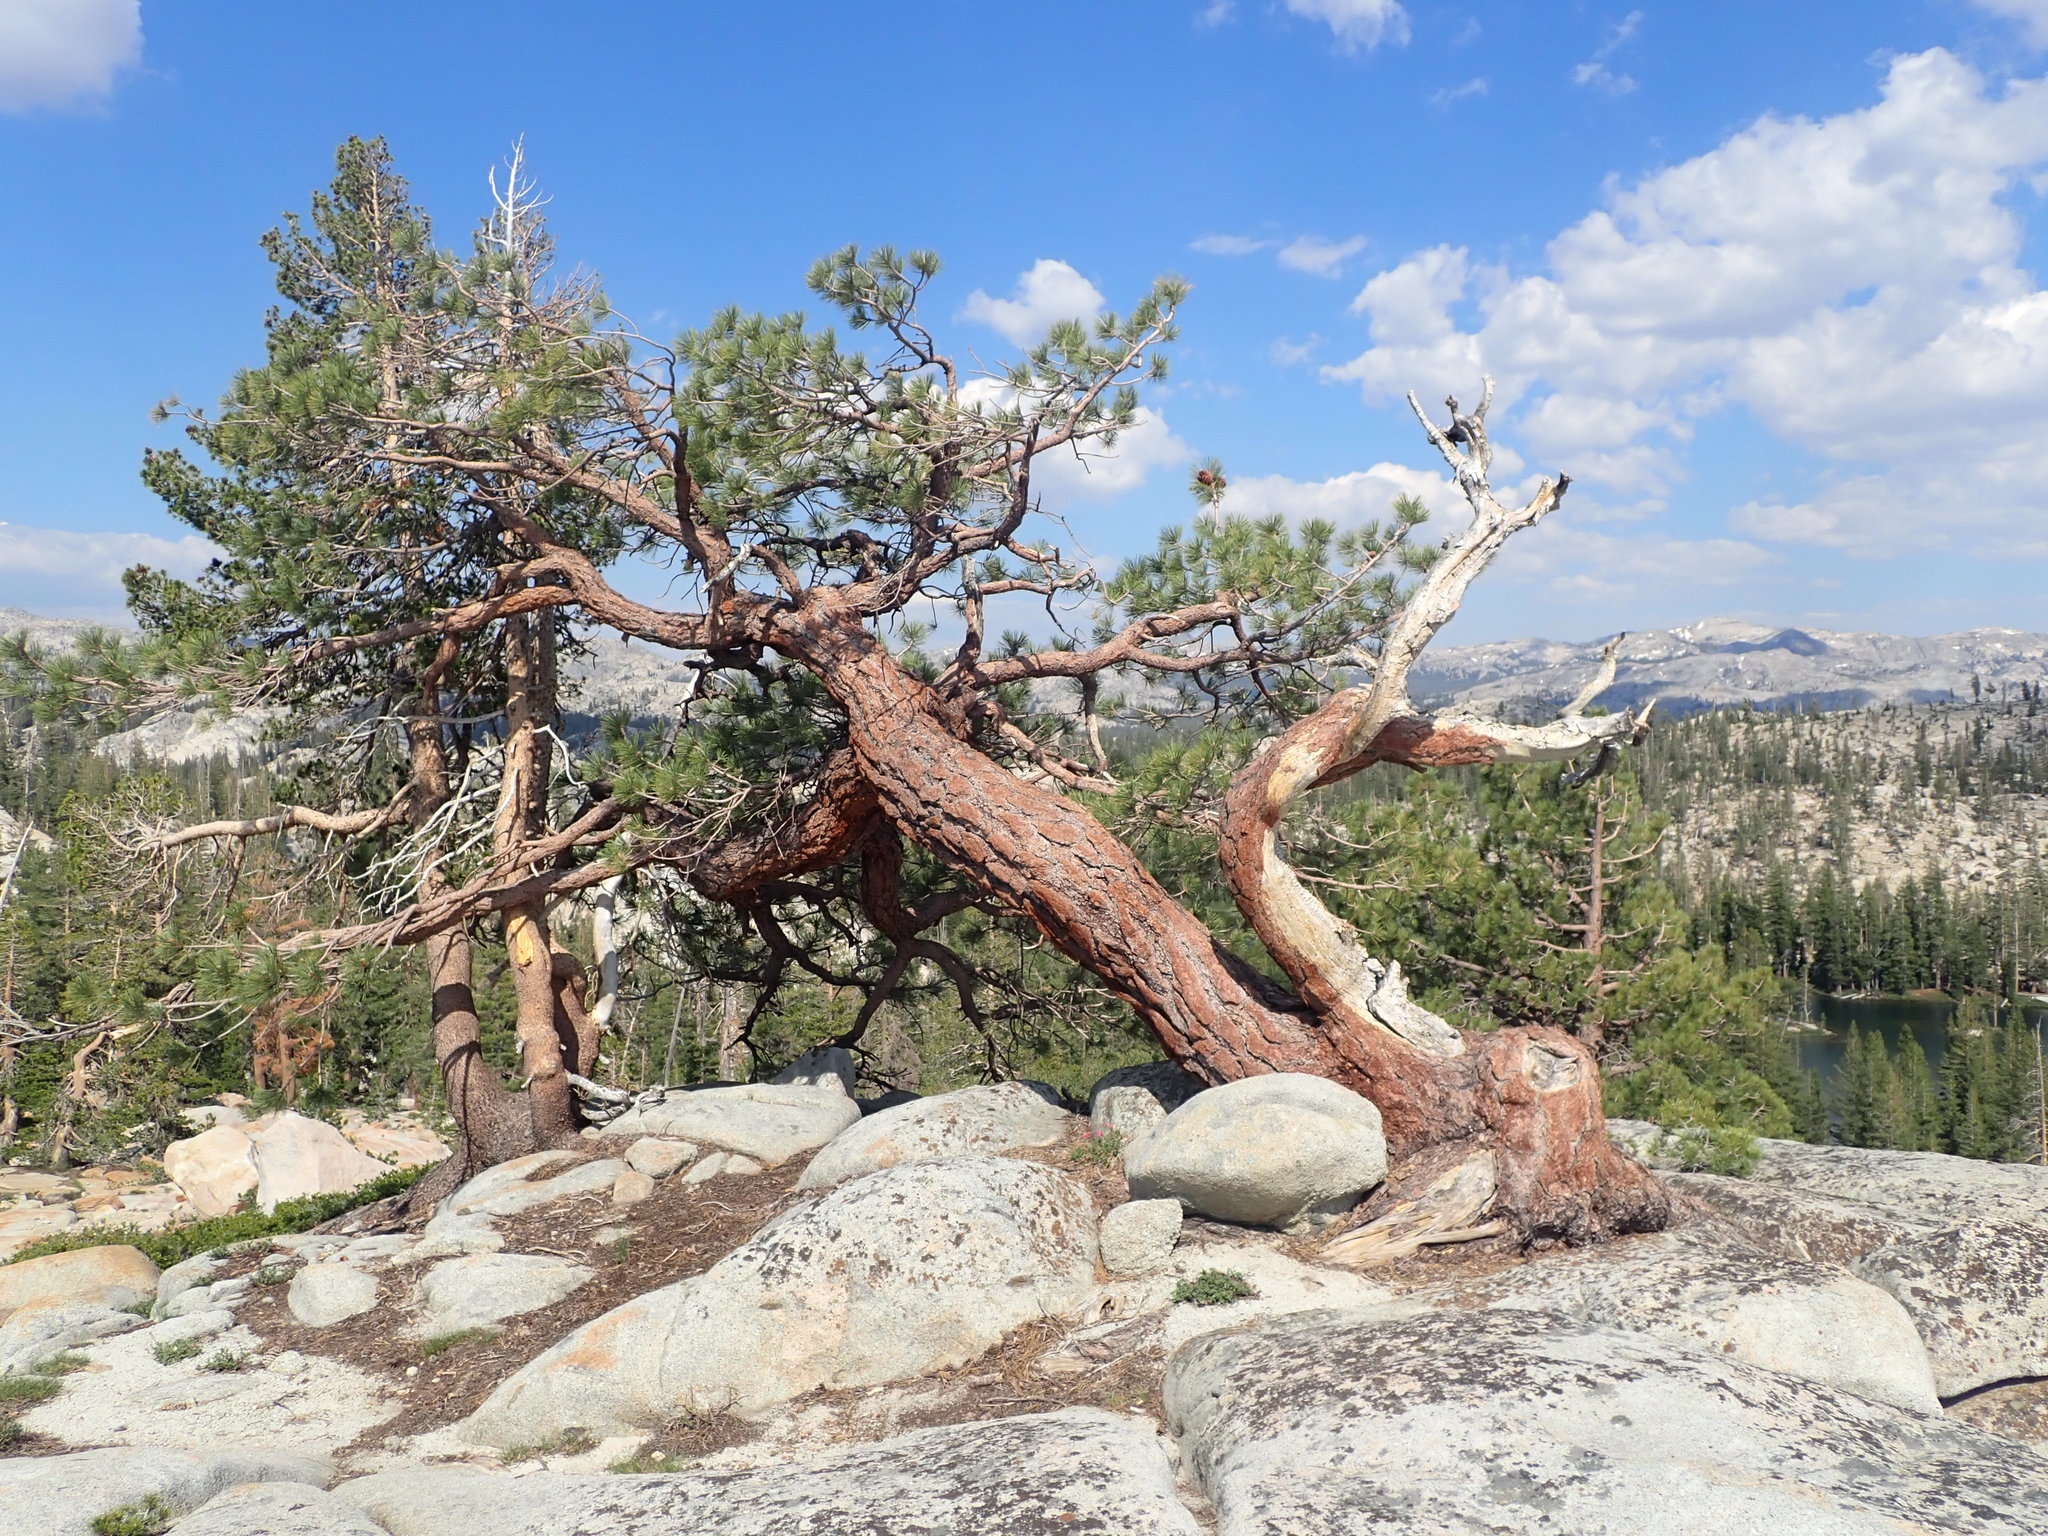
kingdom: Plantae
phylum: Tracheophyta
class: Pinopsida
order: Pinales
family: Pinaceae
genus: Pinus
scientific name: Pinus jeffreyi
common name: Jeffrey pine
